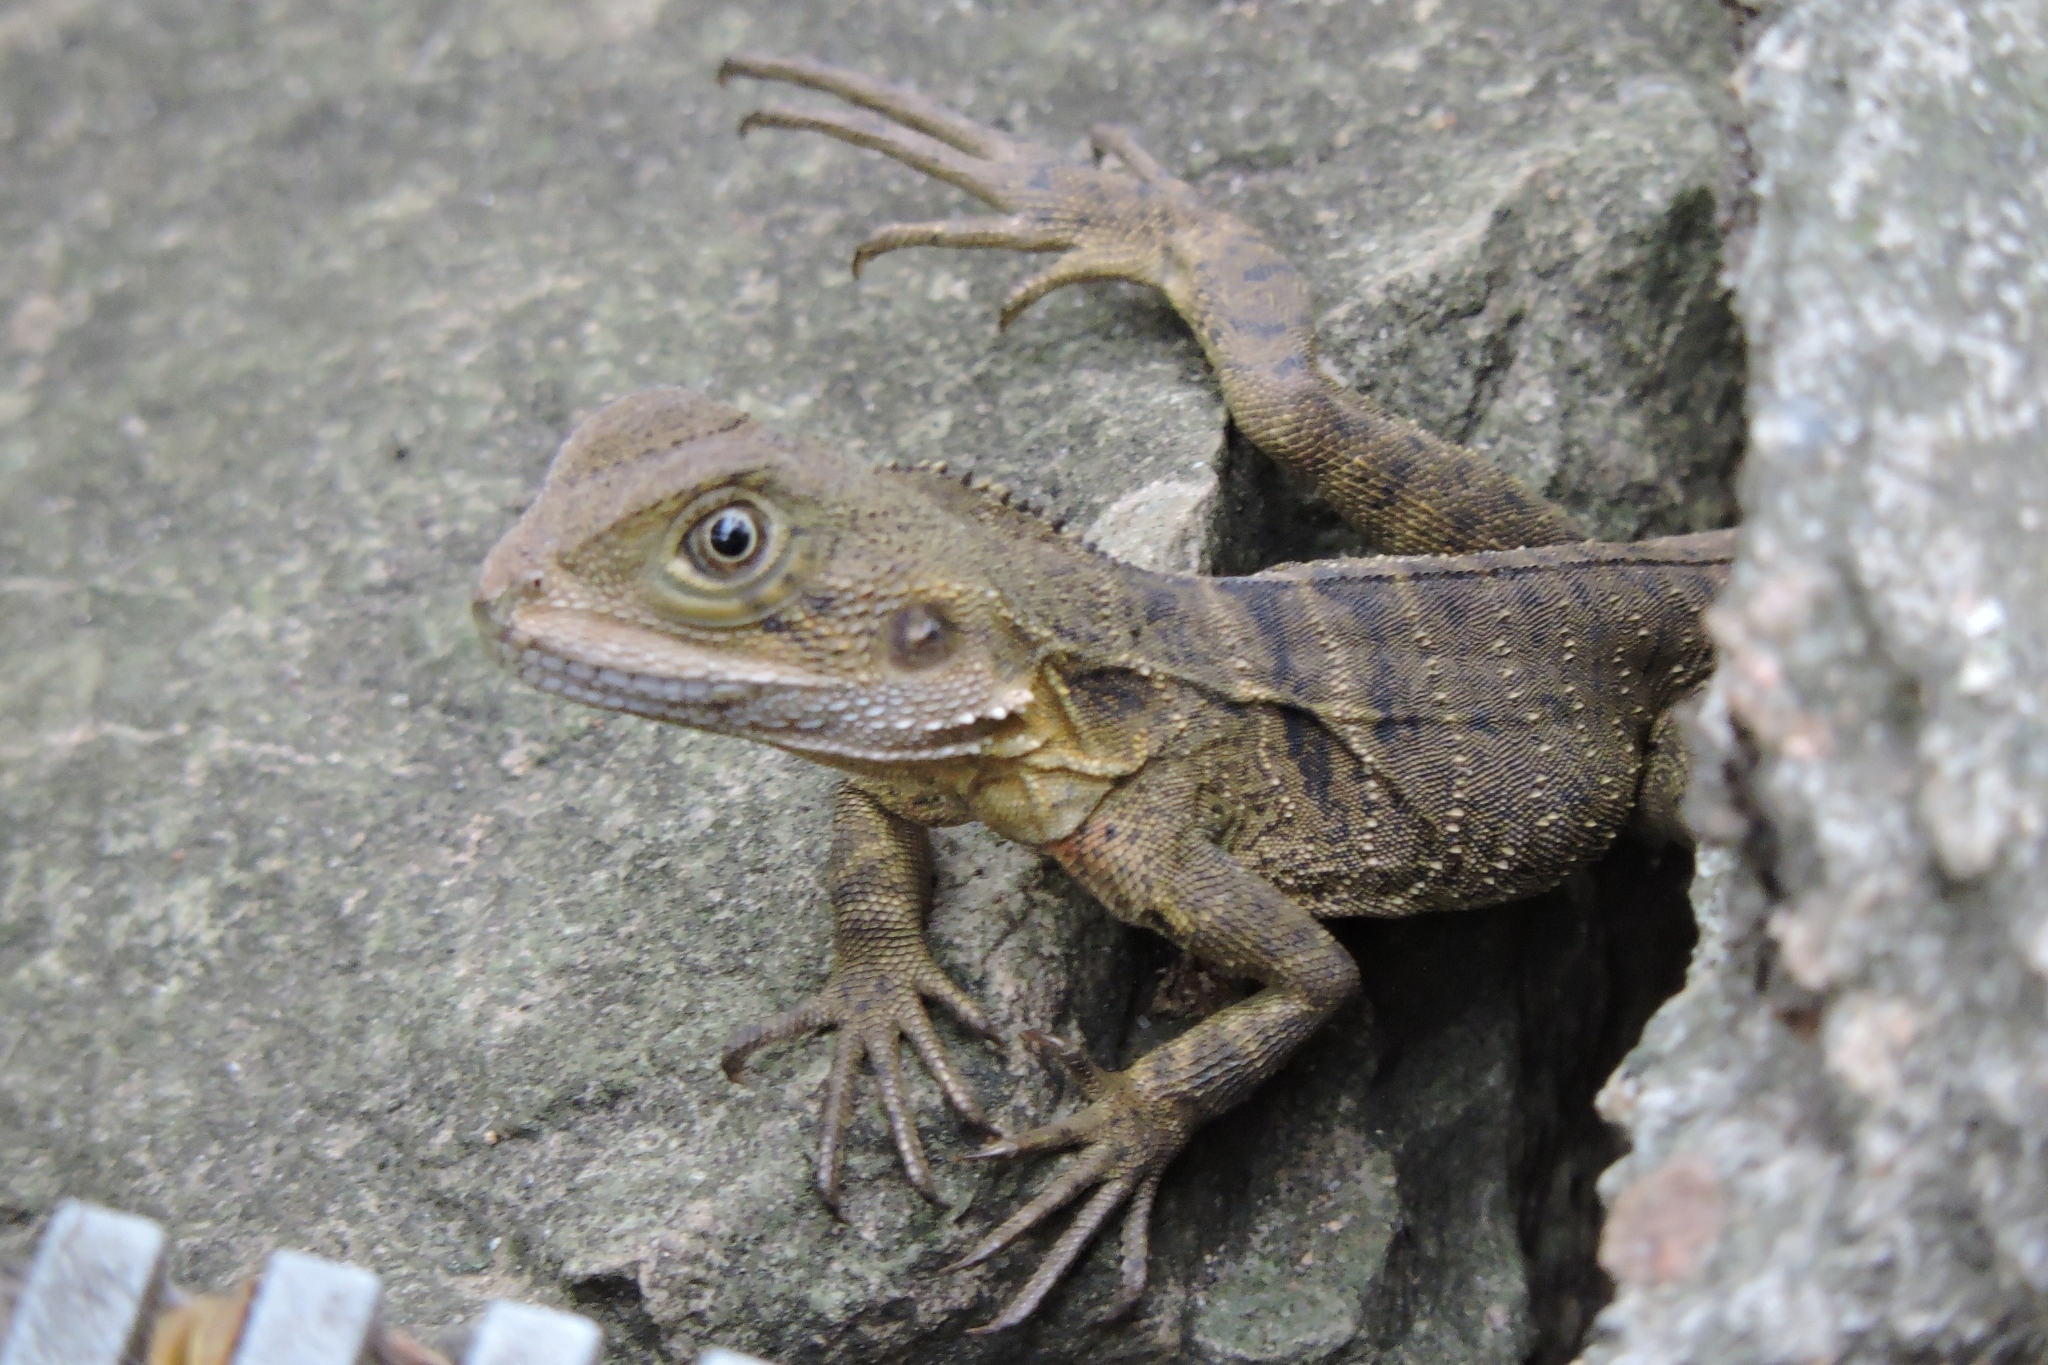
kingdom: Animalia
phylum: Chordata
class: Squamata
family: Agamidae
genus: Intellagama
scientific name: Intellagama lesueurii
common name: Eastern water dragon
